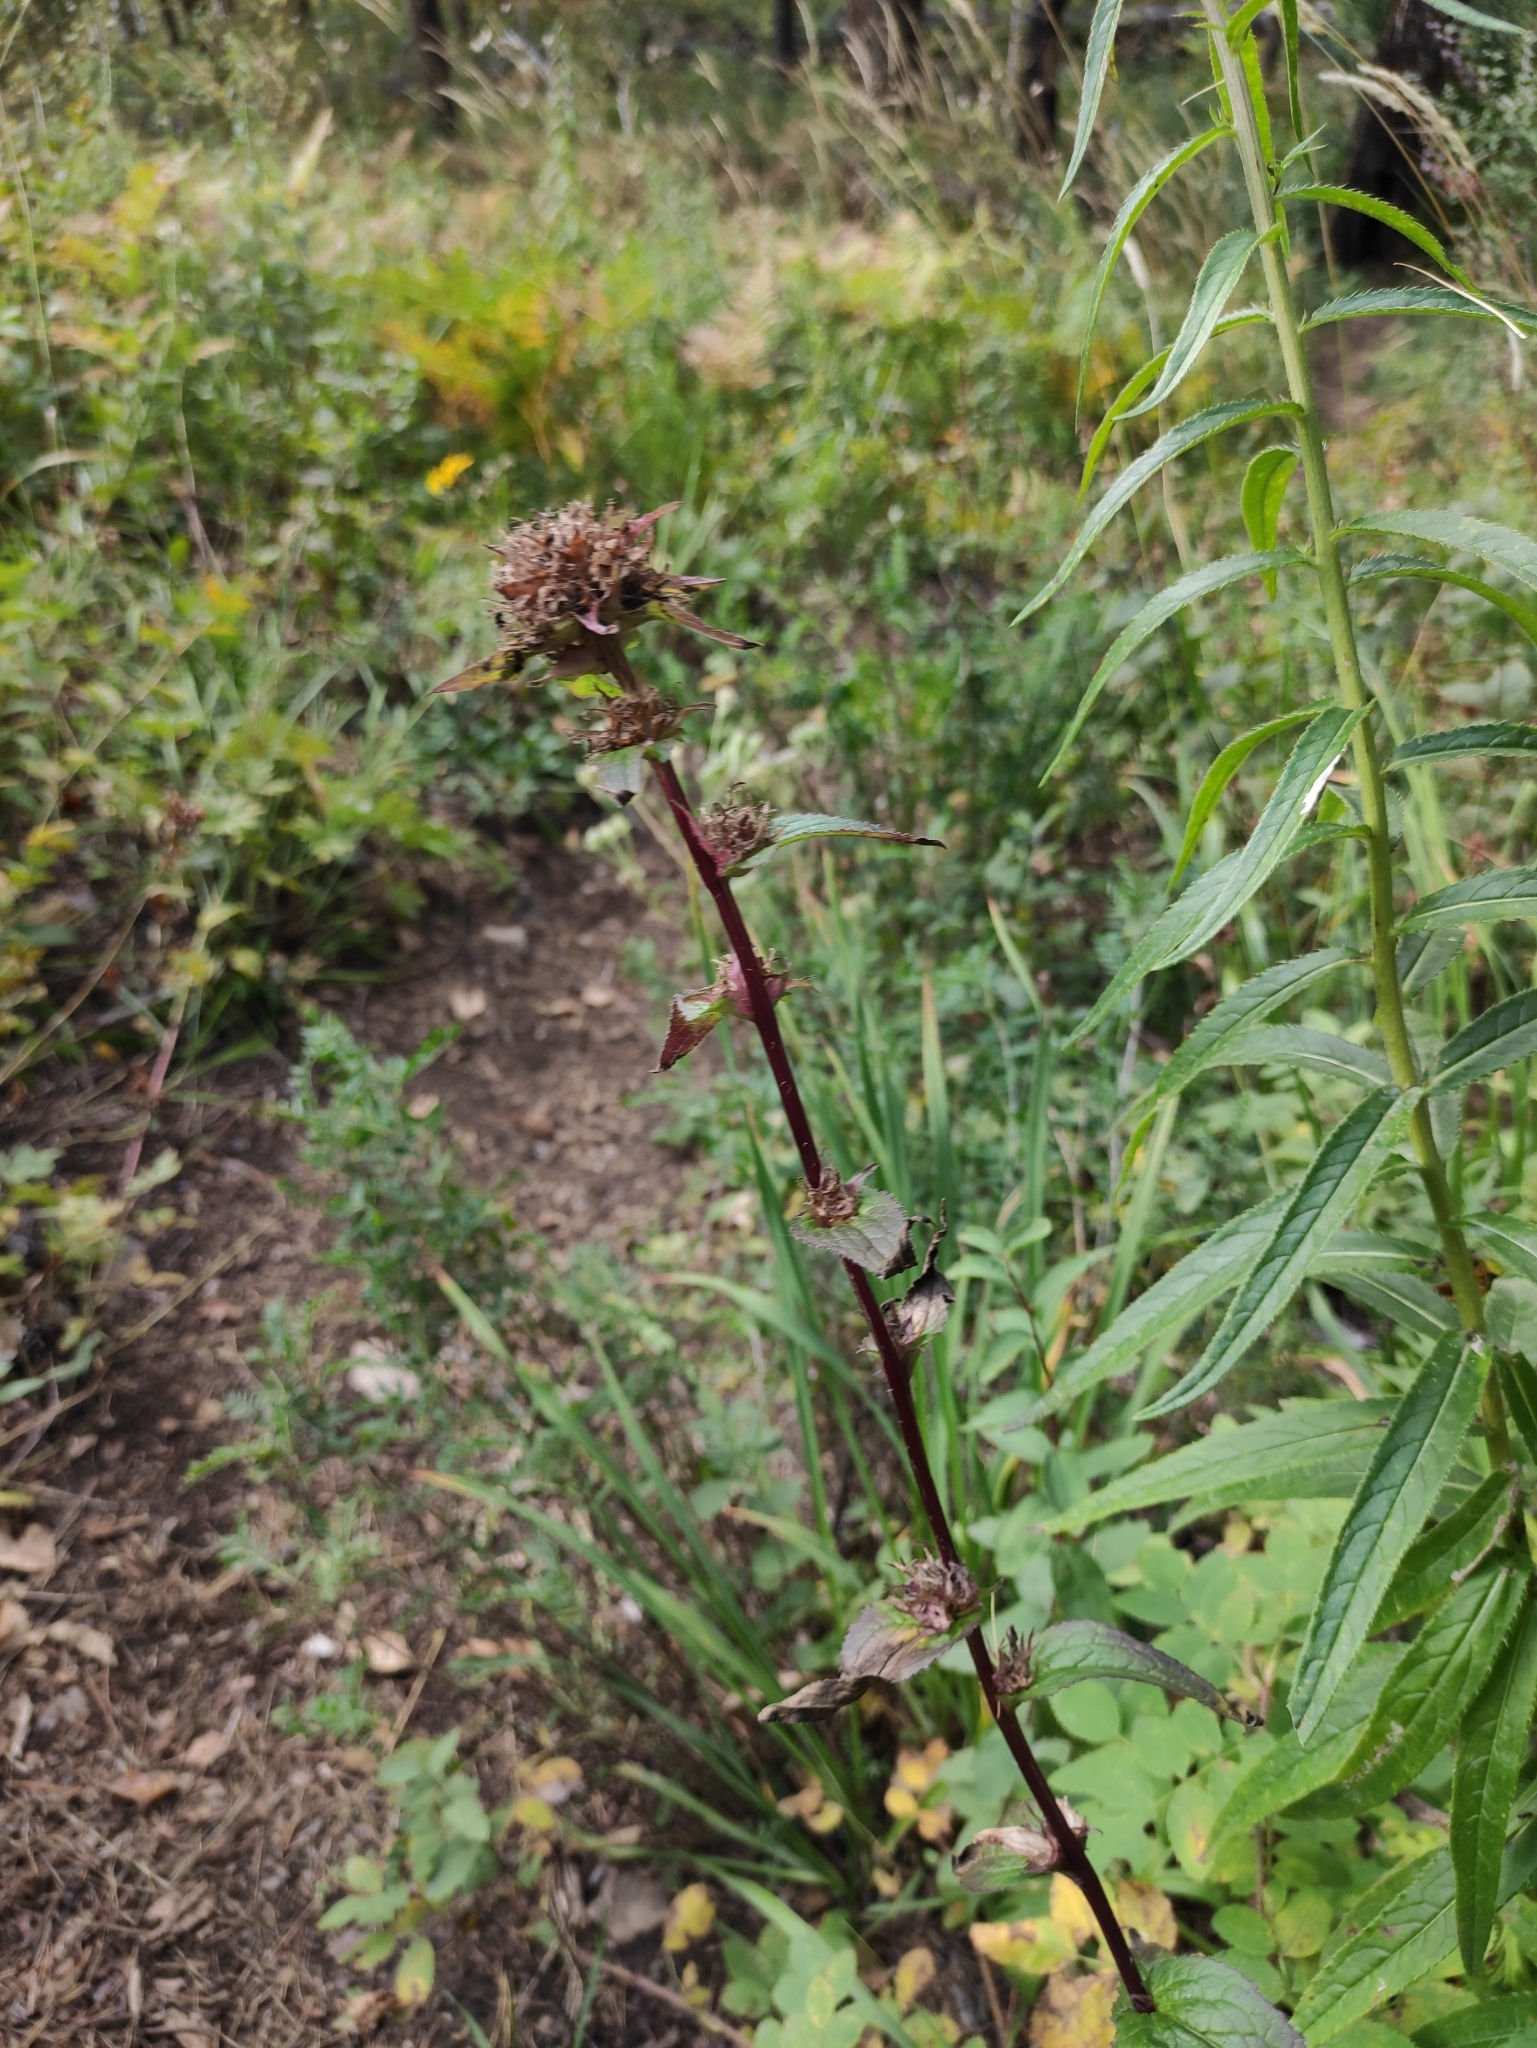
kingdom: Plantae
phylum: Tracheophyta
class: Magnoliopsida
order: Asterales
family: Campanulaceae
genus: Campanula
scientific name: Campanula glomerata
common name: Clustered bellflower
